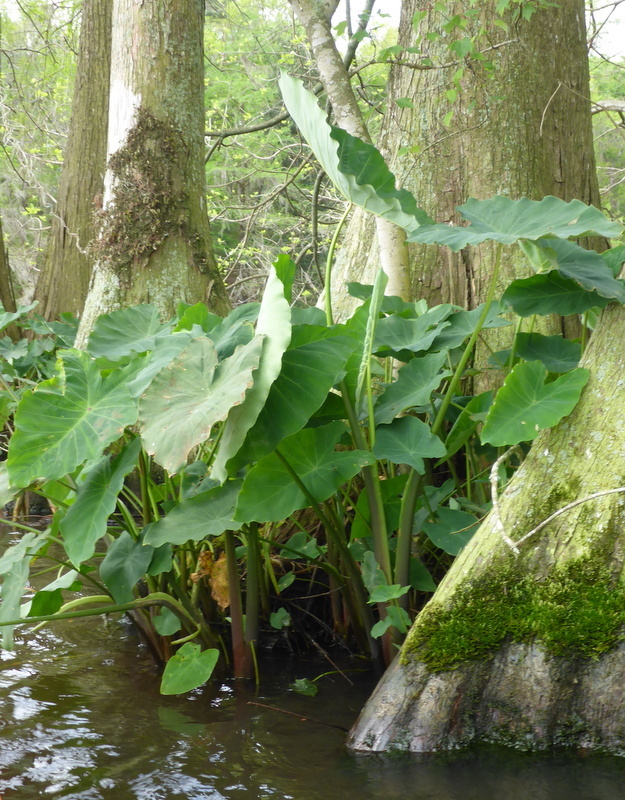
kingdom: Plantae
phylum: Tracheophyta
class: Liliopsida
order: Alismatales
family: Araceae
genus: Colocasia
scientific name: Colocasia esculenta
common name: Taro
